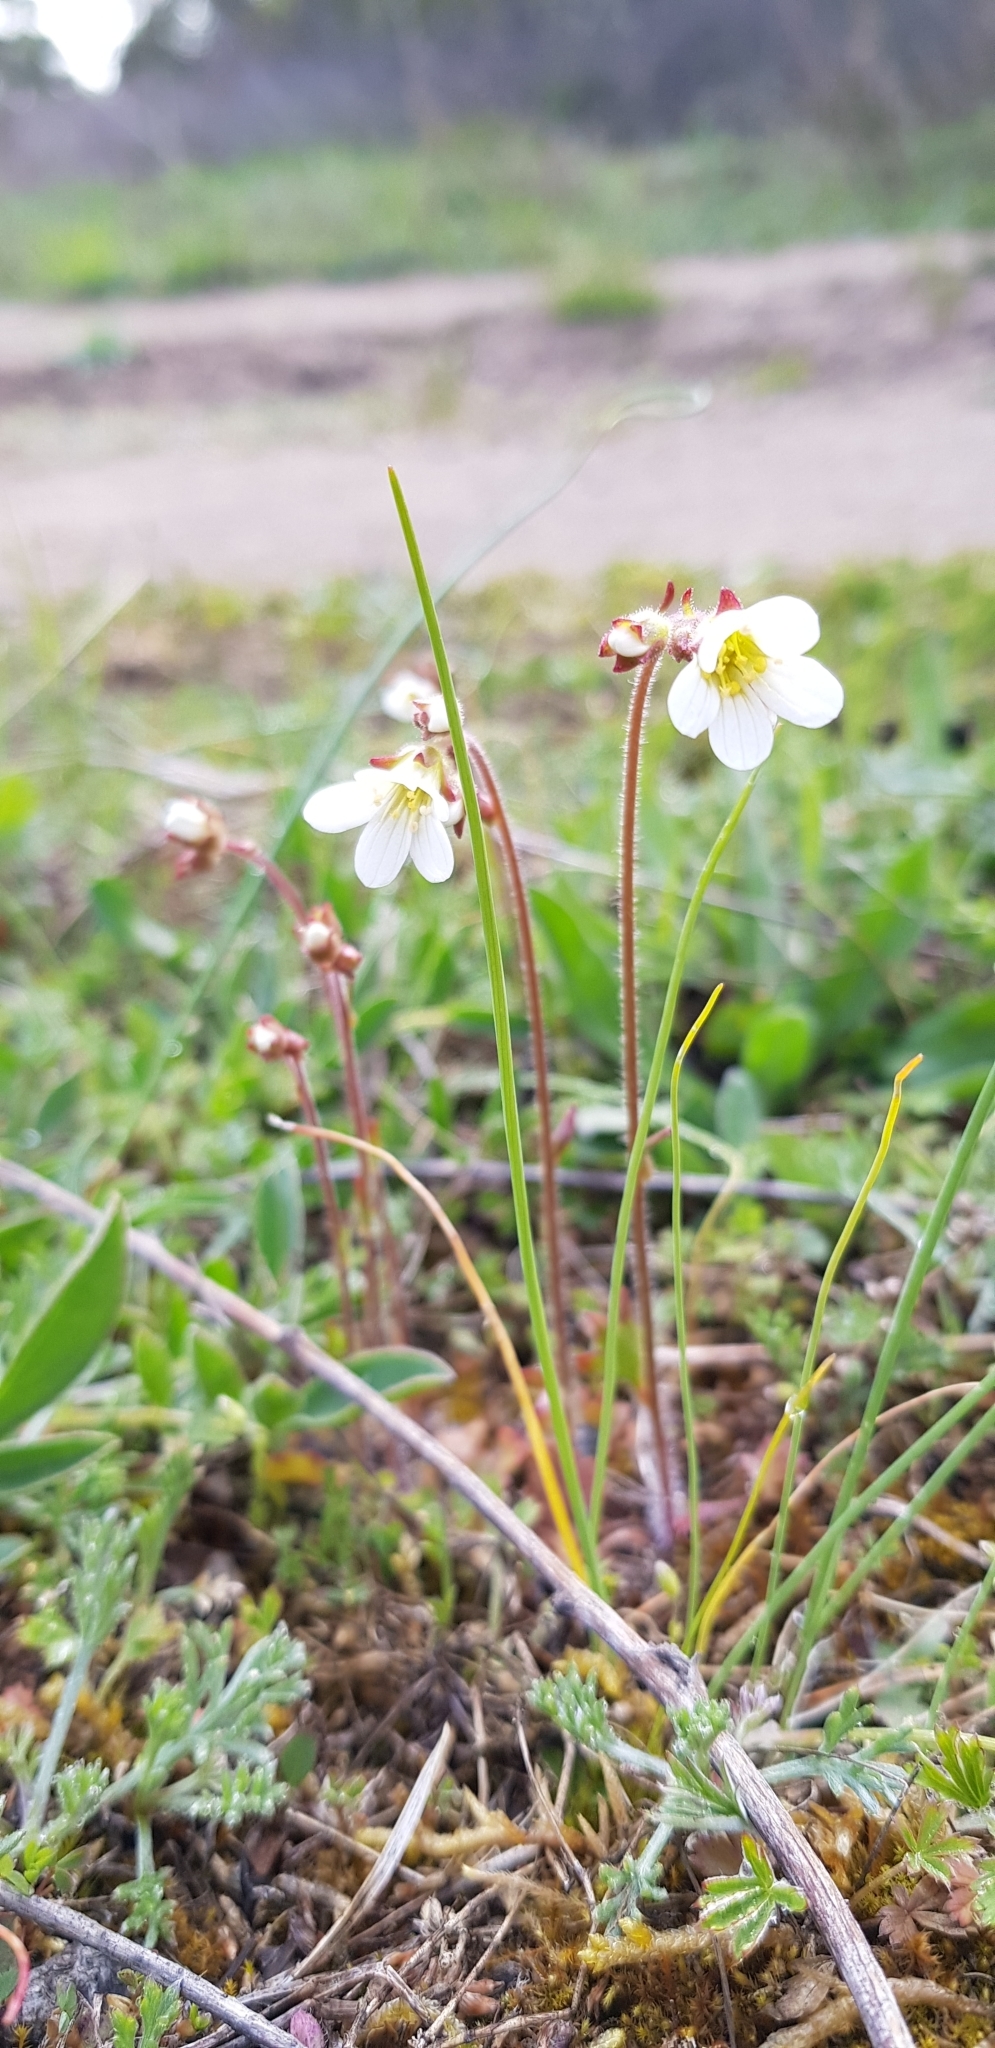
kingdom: Plantae
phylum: Tracheophyta
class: Magnoliopsida
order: Saxifragales
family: Saxifragaceae
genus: Saxifraga
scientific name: Saxifraga granulata
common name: Meadow saxifrage
